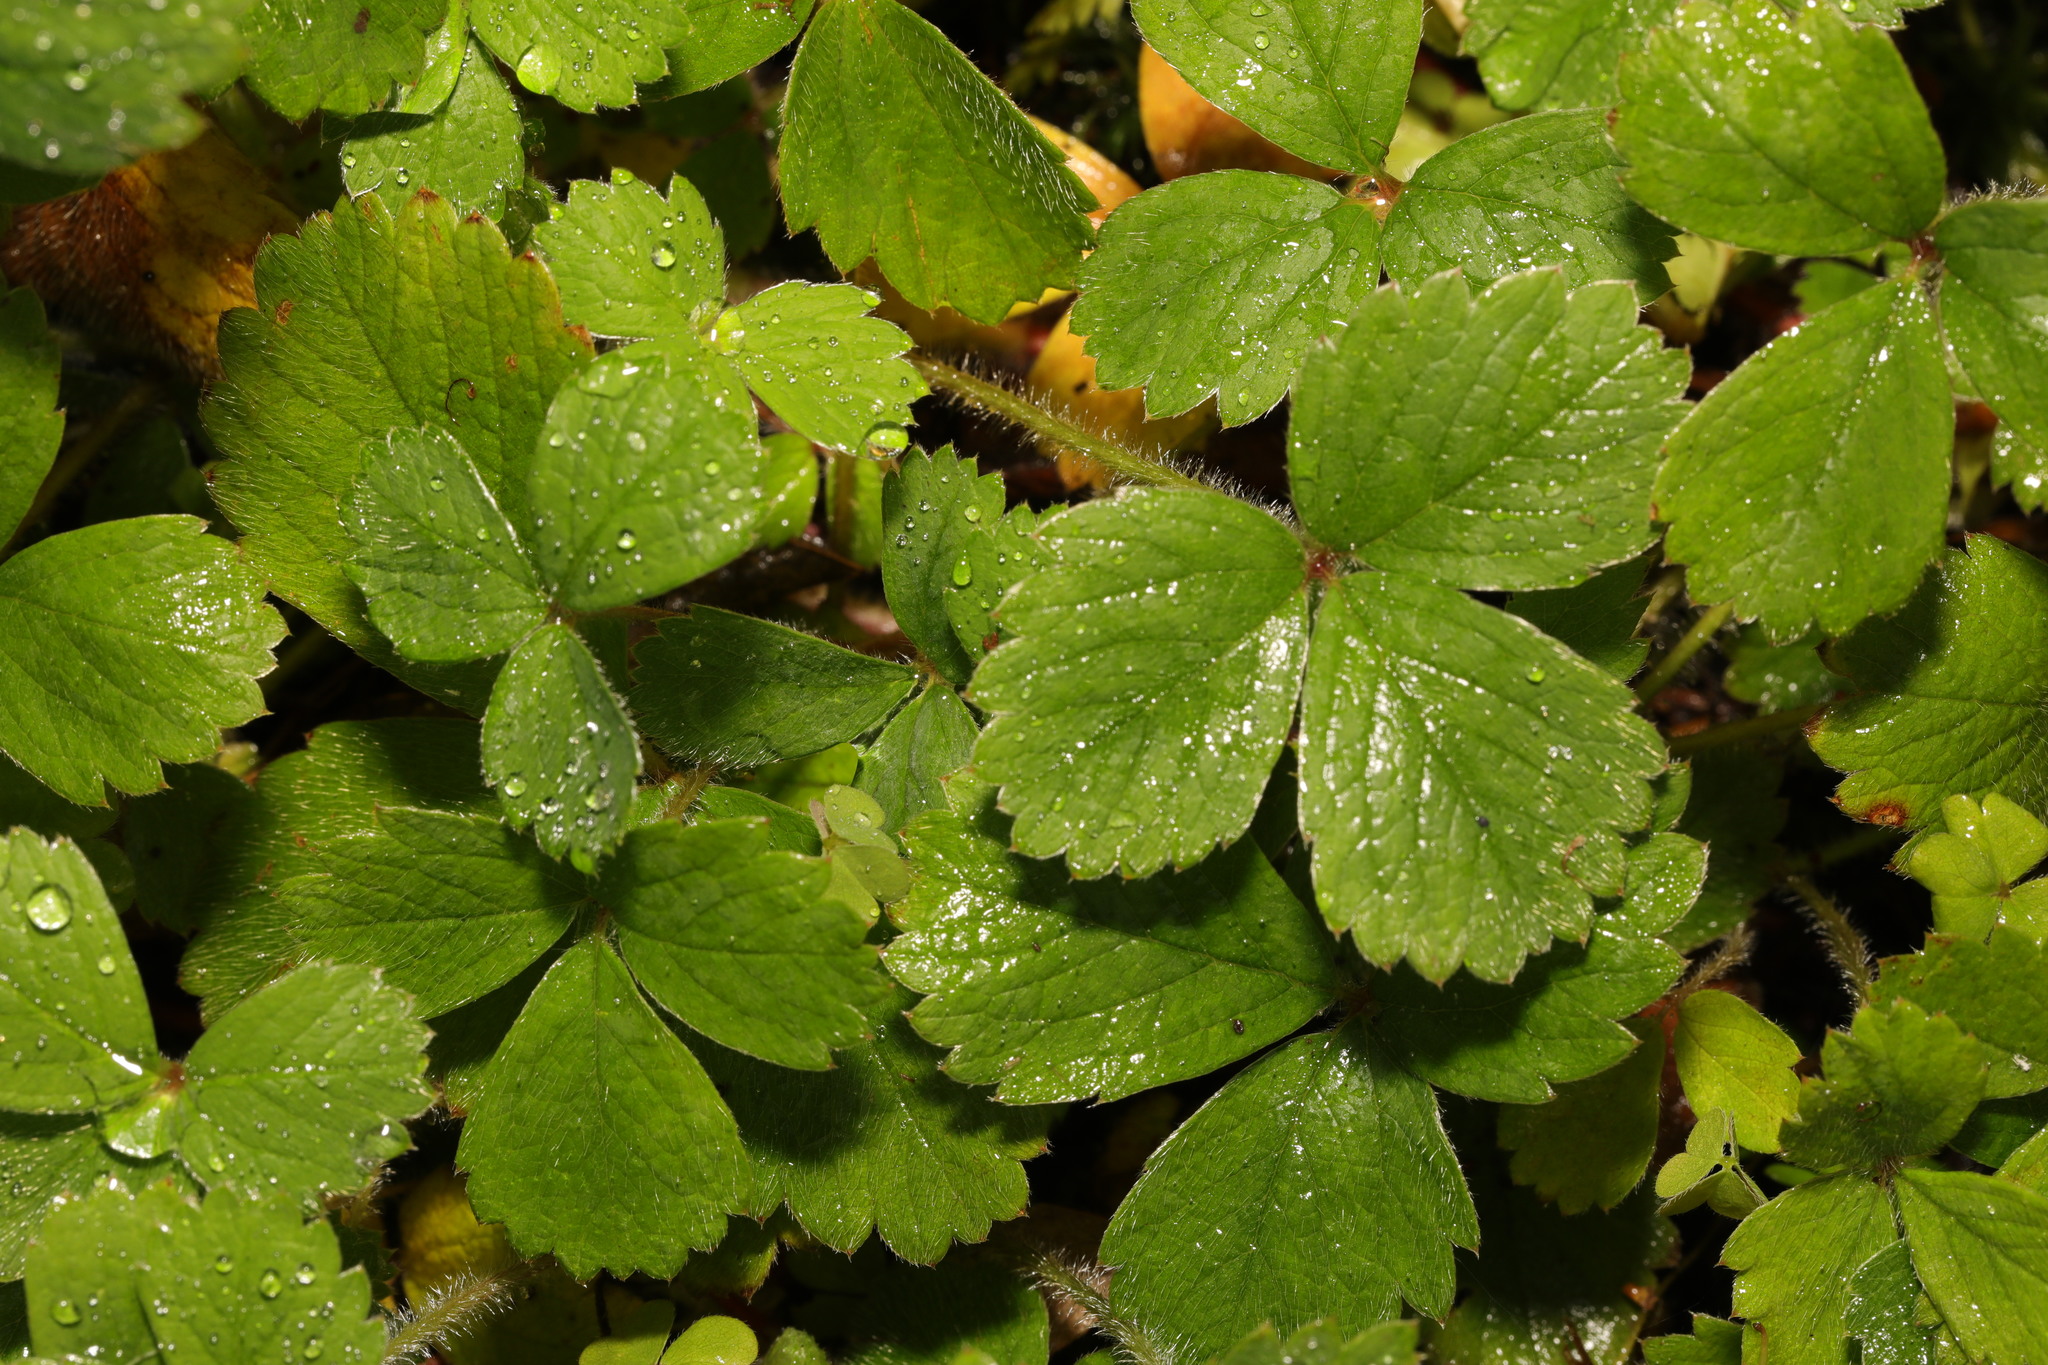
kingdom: Plantae
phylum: Tracheophyta
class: Magnoliopsida
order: Rosales
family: Rosaceae
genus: Potentilla
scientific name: Potentilla sterilis
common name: Barren strawberry
